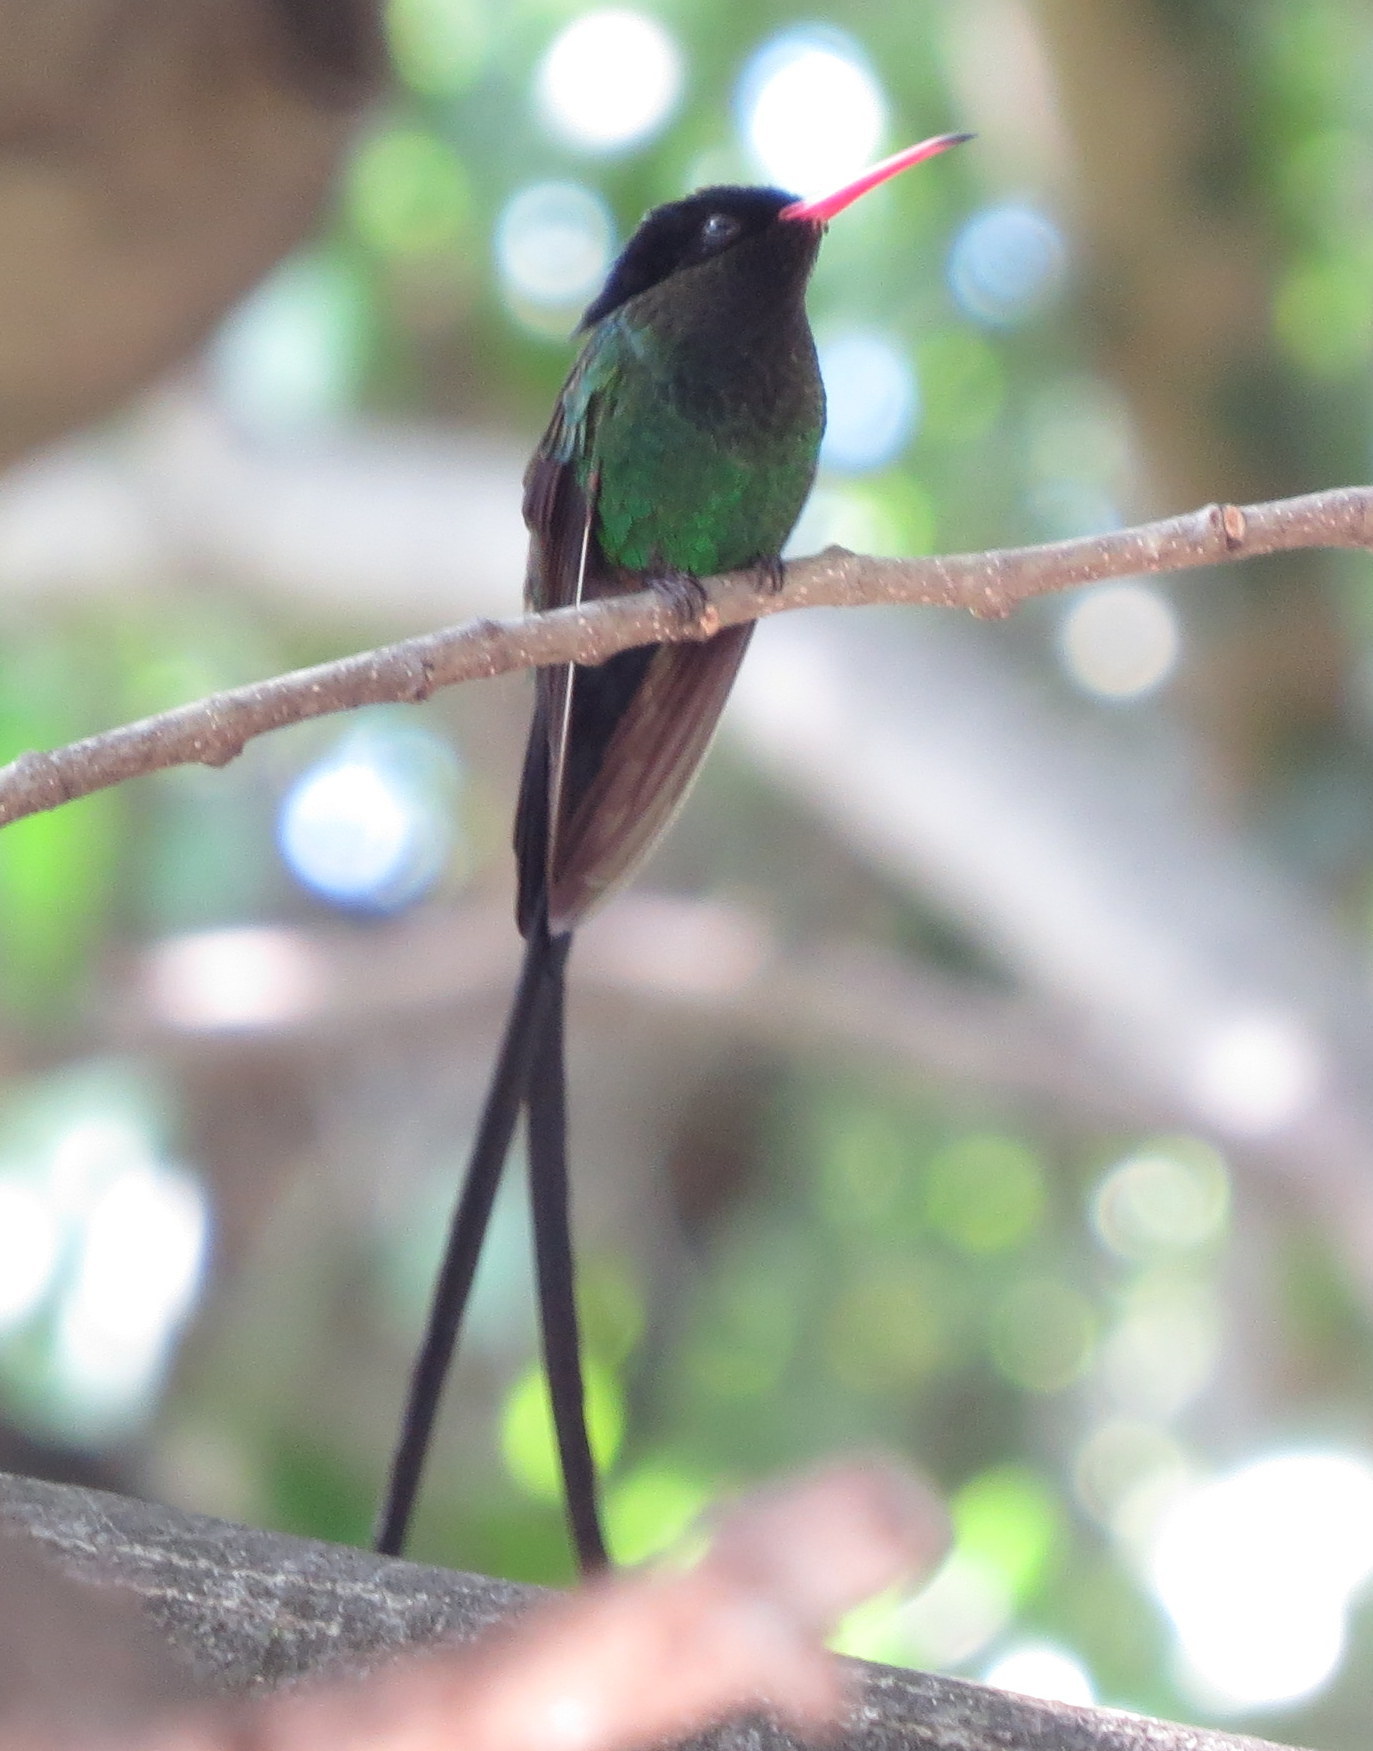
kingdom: Animalia
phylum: Chordata
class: Aves
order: Apodiformes
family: Trochilidae
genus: Trochilus
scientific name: Trochilus polytmus
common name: Red-billed streamertail
